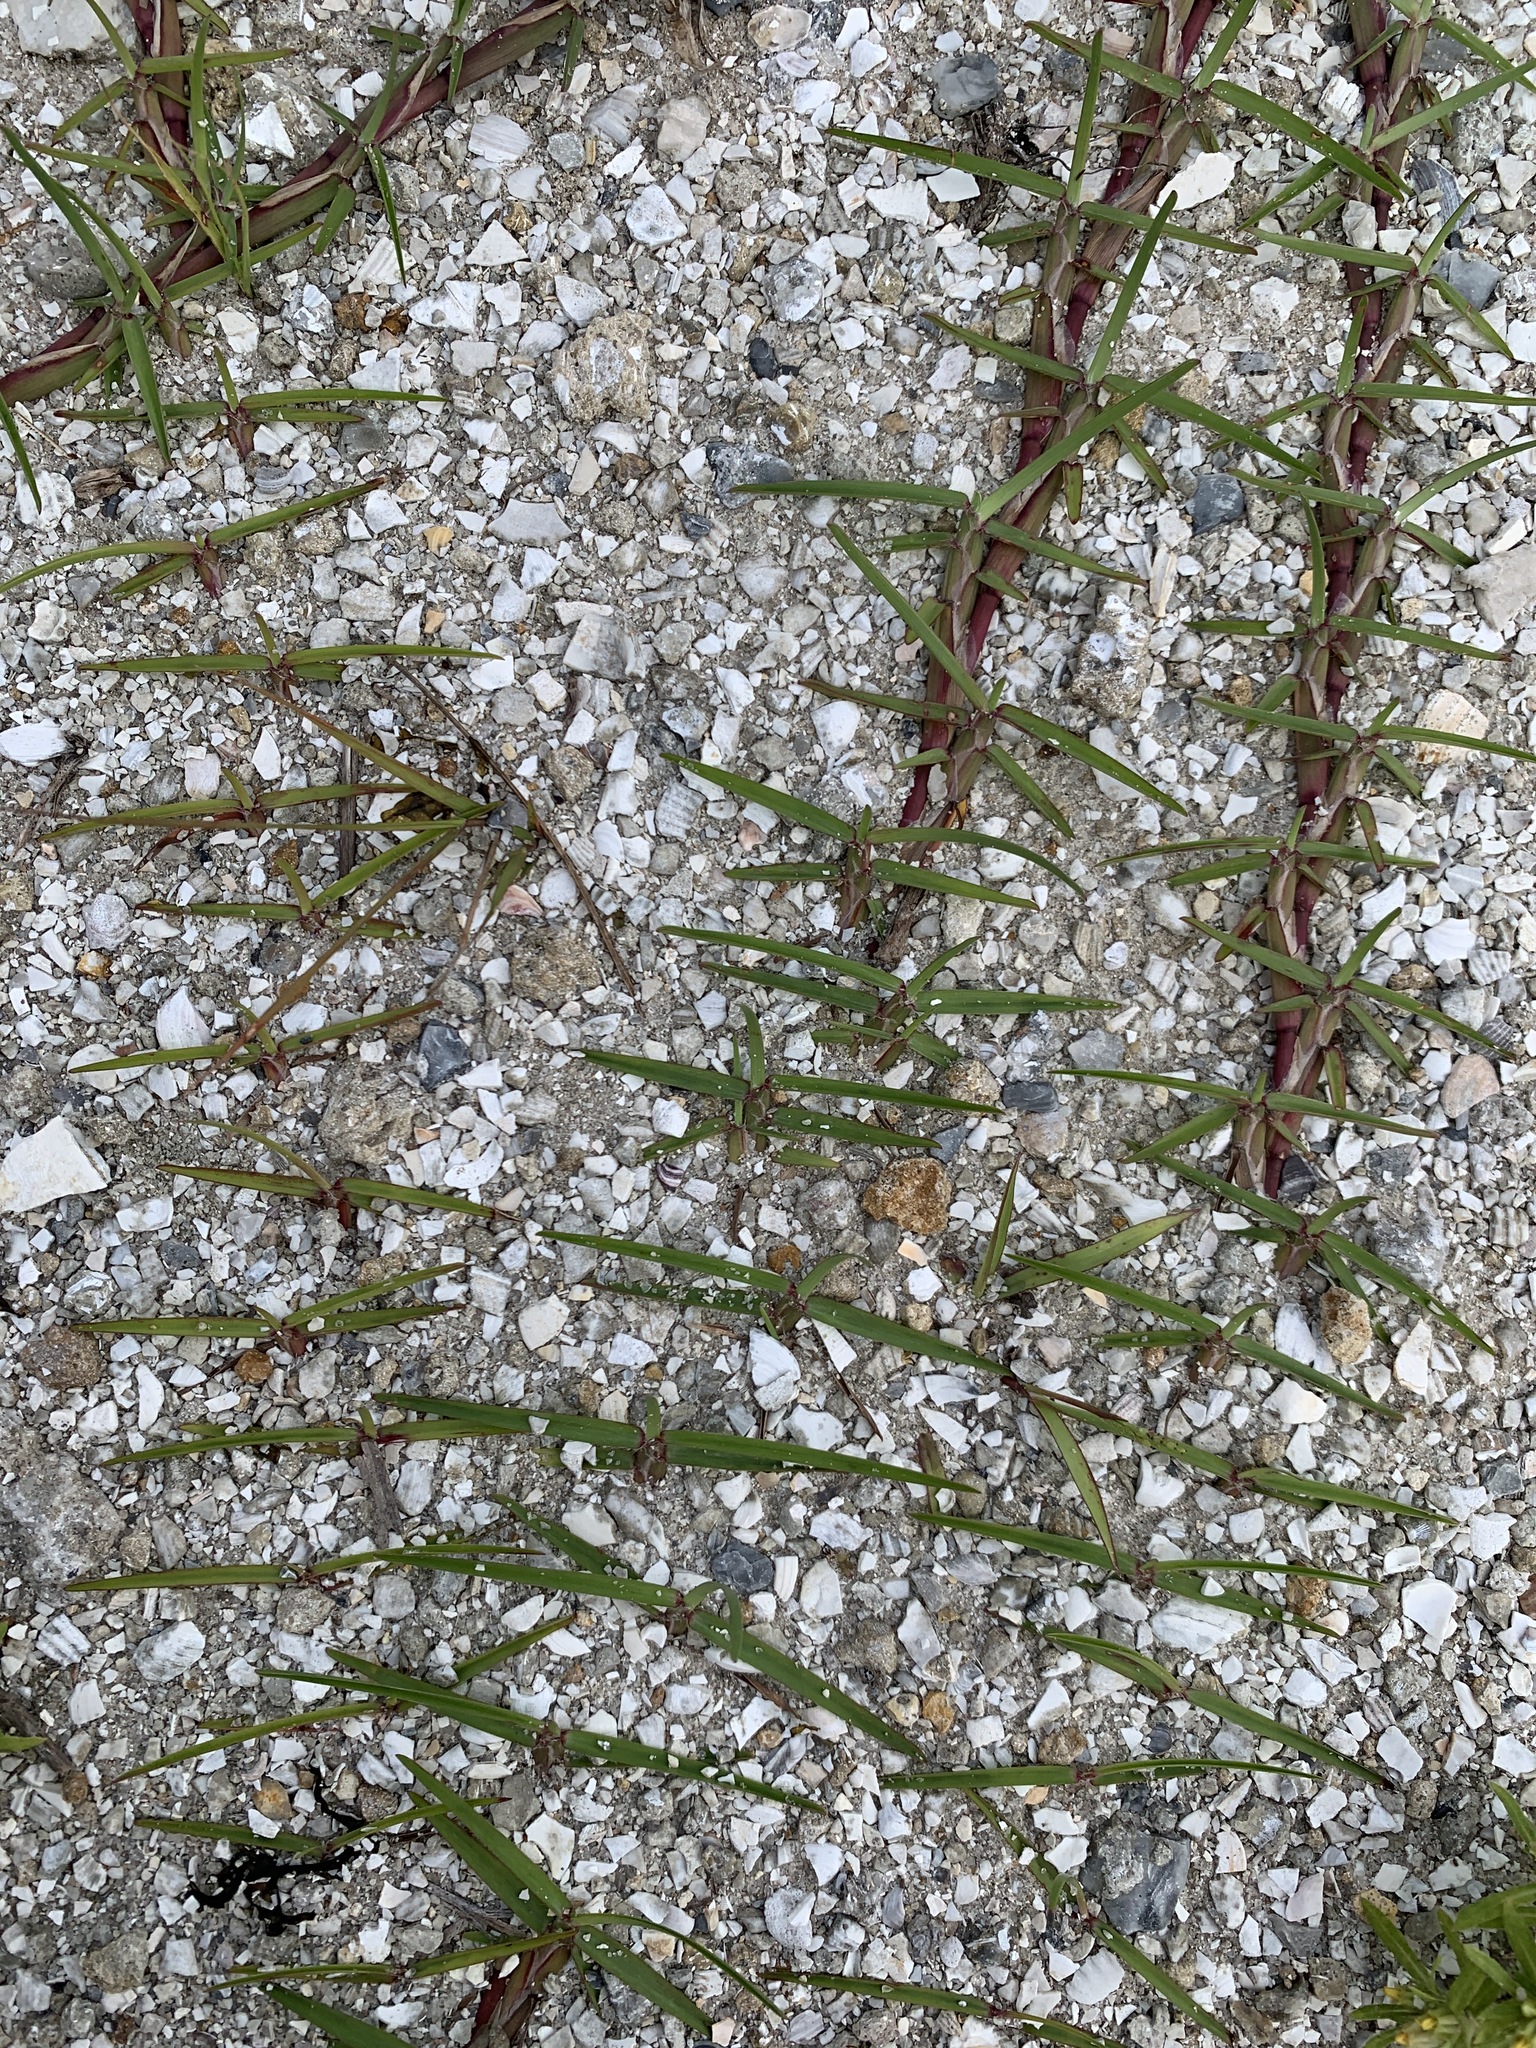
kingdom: Plantae
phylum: Tracheophyta
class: Liliopsida
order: Poales
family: Poaceae
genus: Eremochloa
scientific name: Eremochloa ophiuroides
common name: Centipede grass
